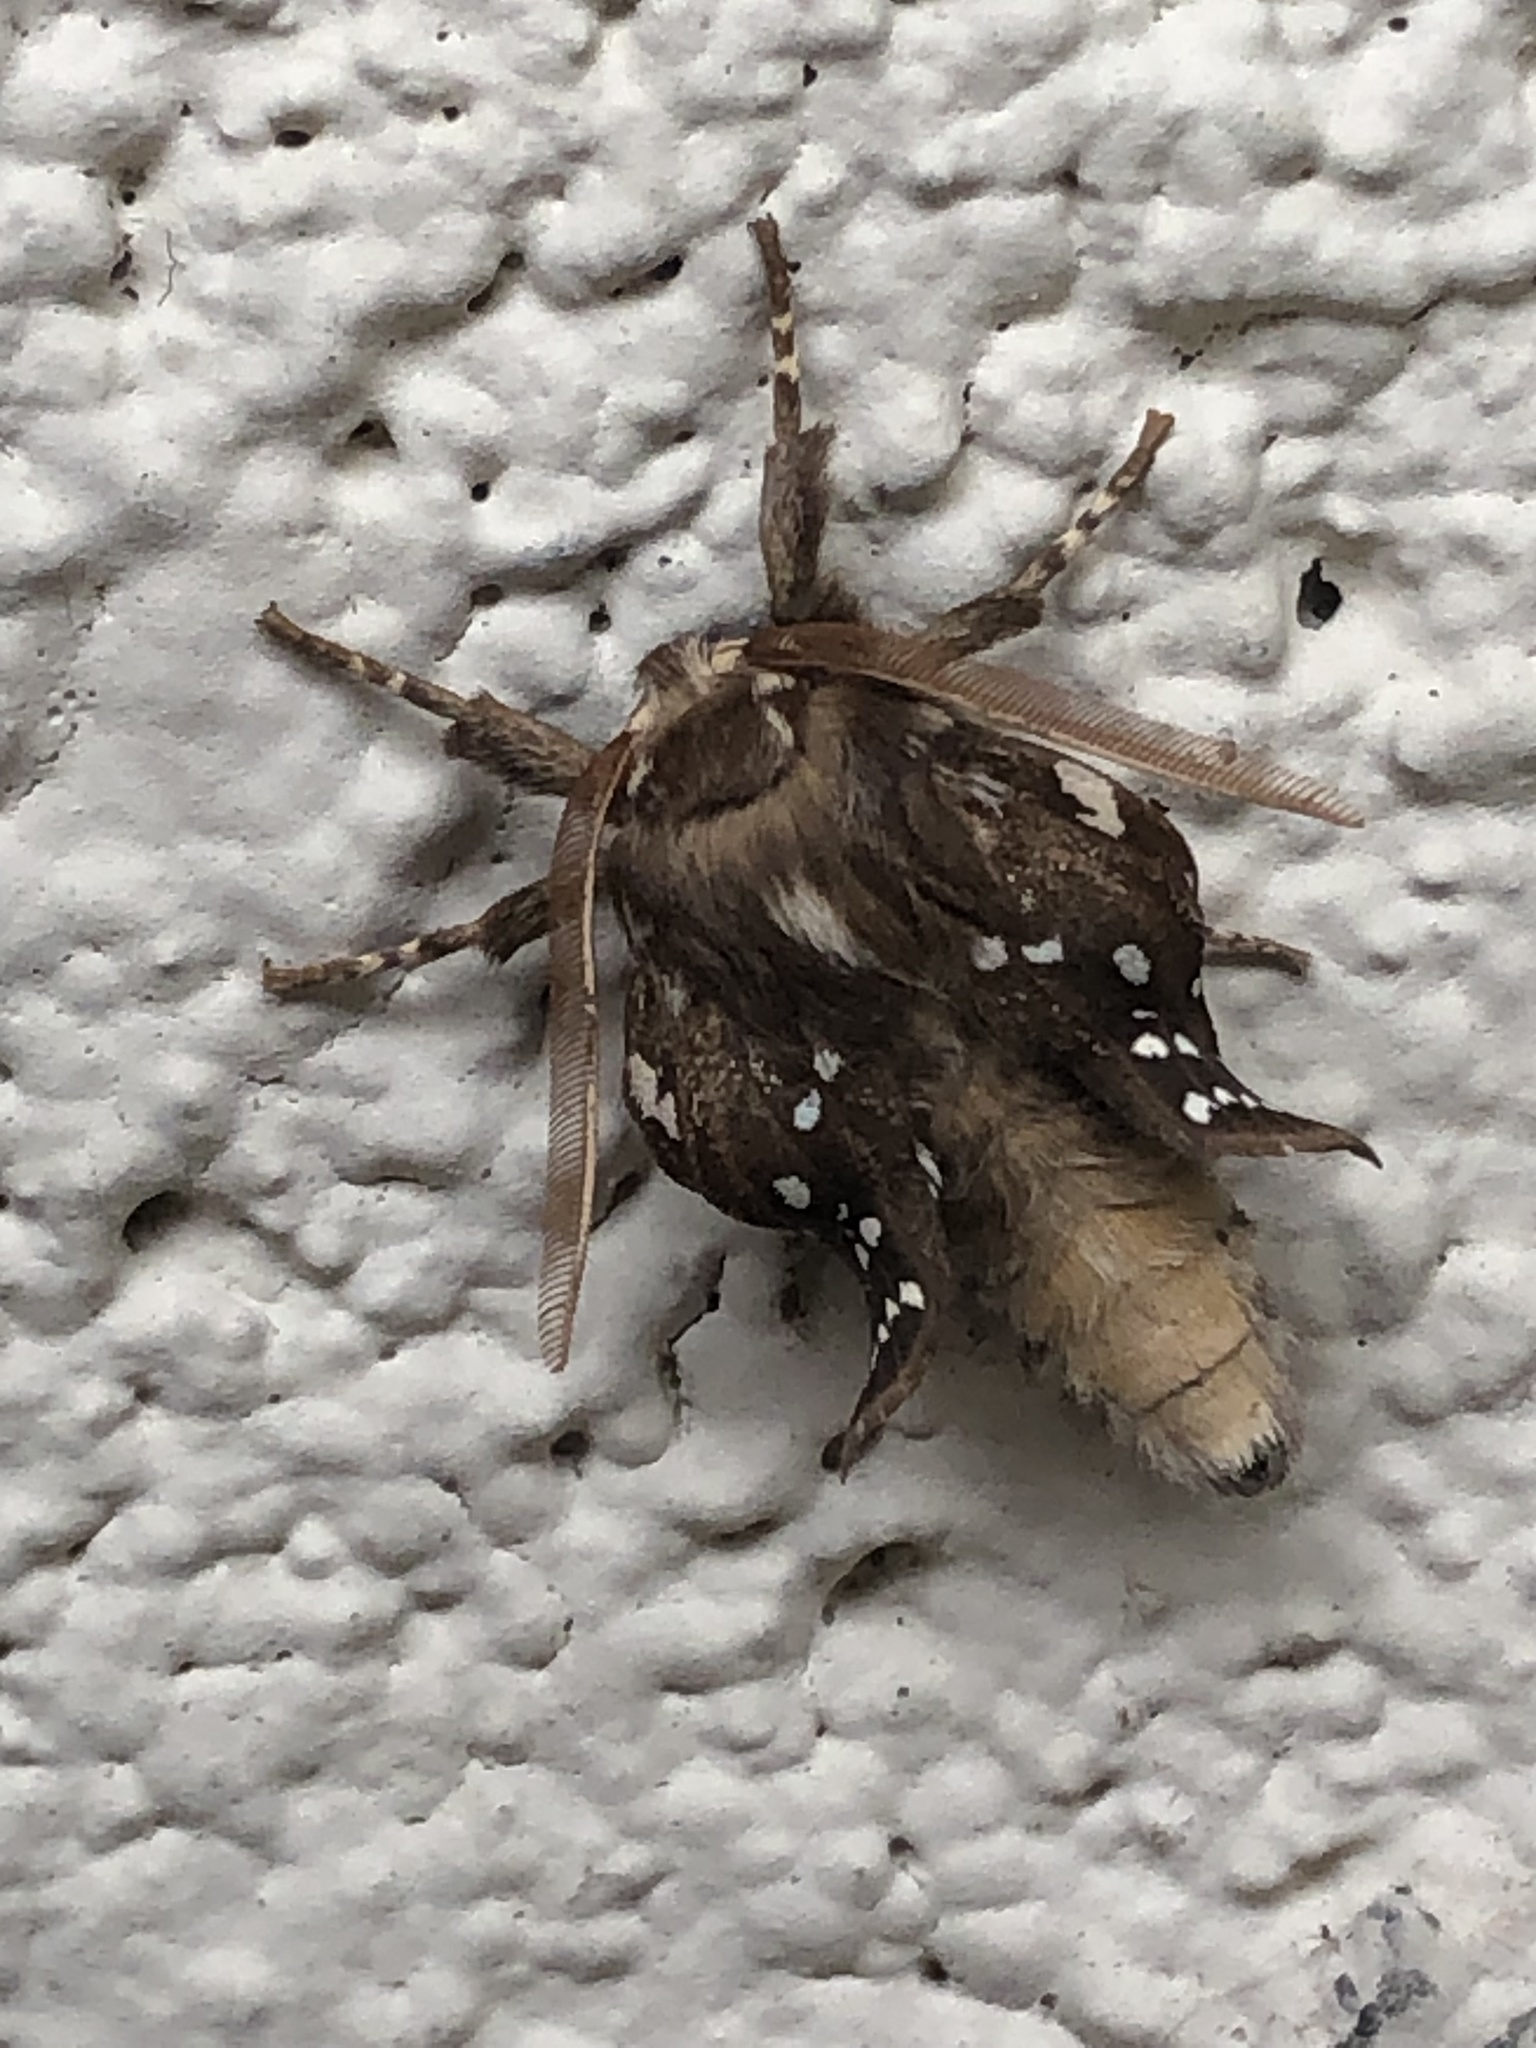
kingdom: Animalia
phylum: Arthropoda
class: Insecta
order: Lepidoptera
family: Erebidae
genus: Lophocampa
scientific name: Lophocampa sobrina
